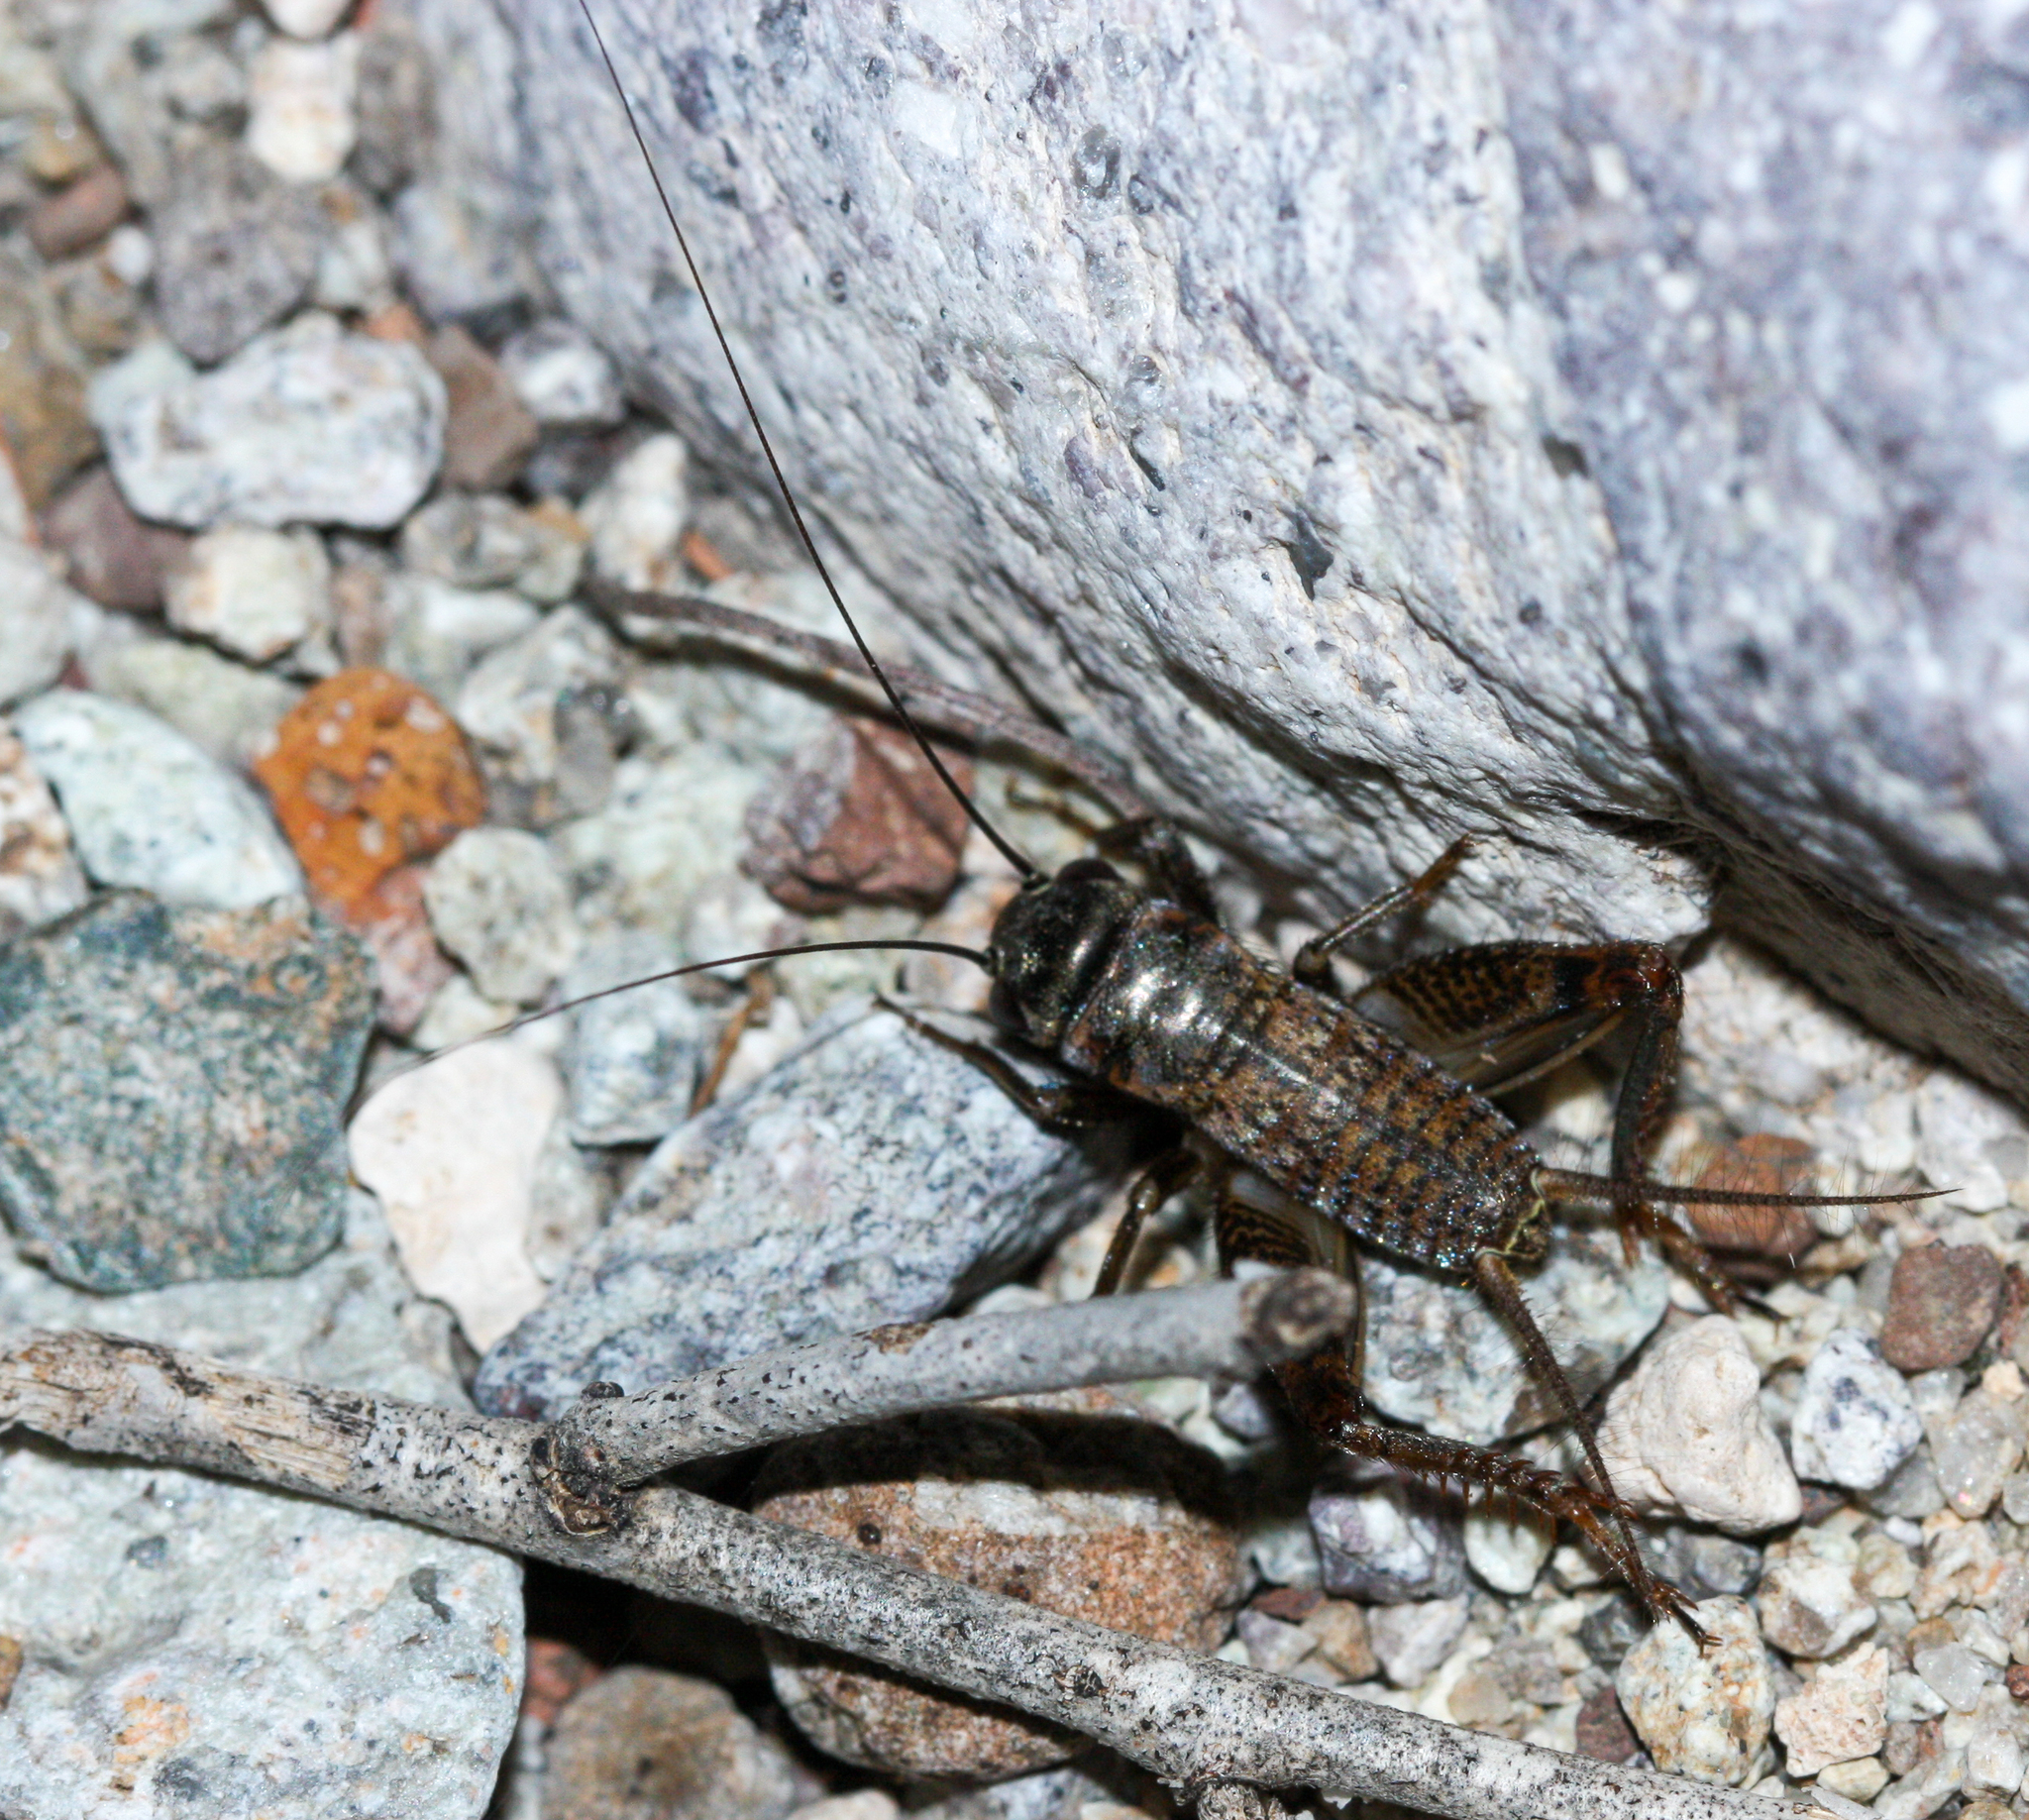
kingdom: Animalia
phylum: Arthropoda
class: Insecta
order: Orthoptera
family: Gryllidae
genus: Gryllus
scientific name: Gryllus
